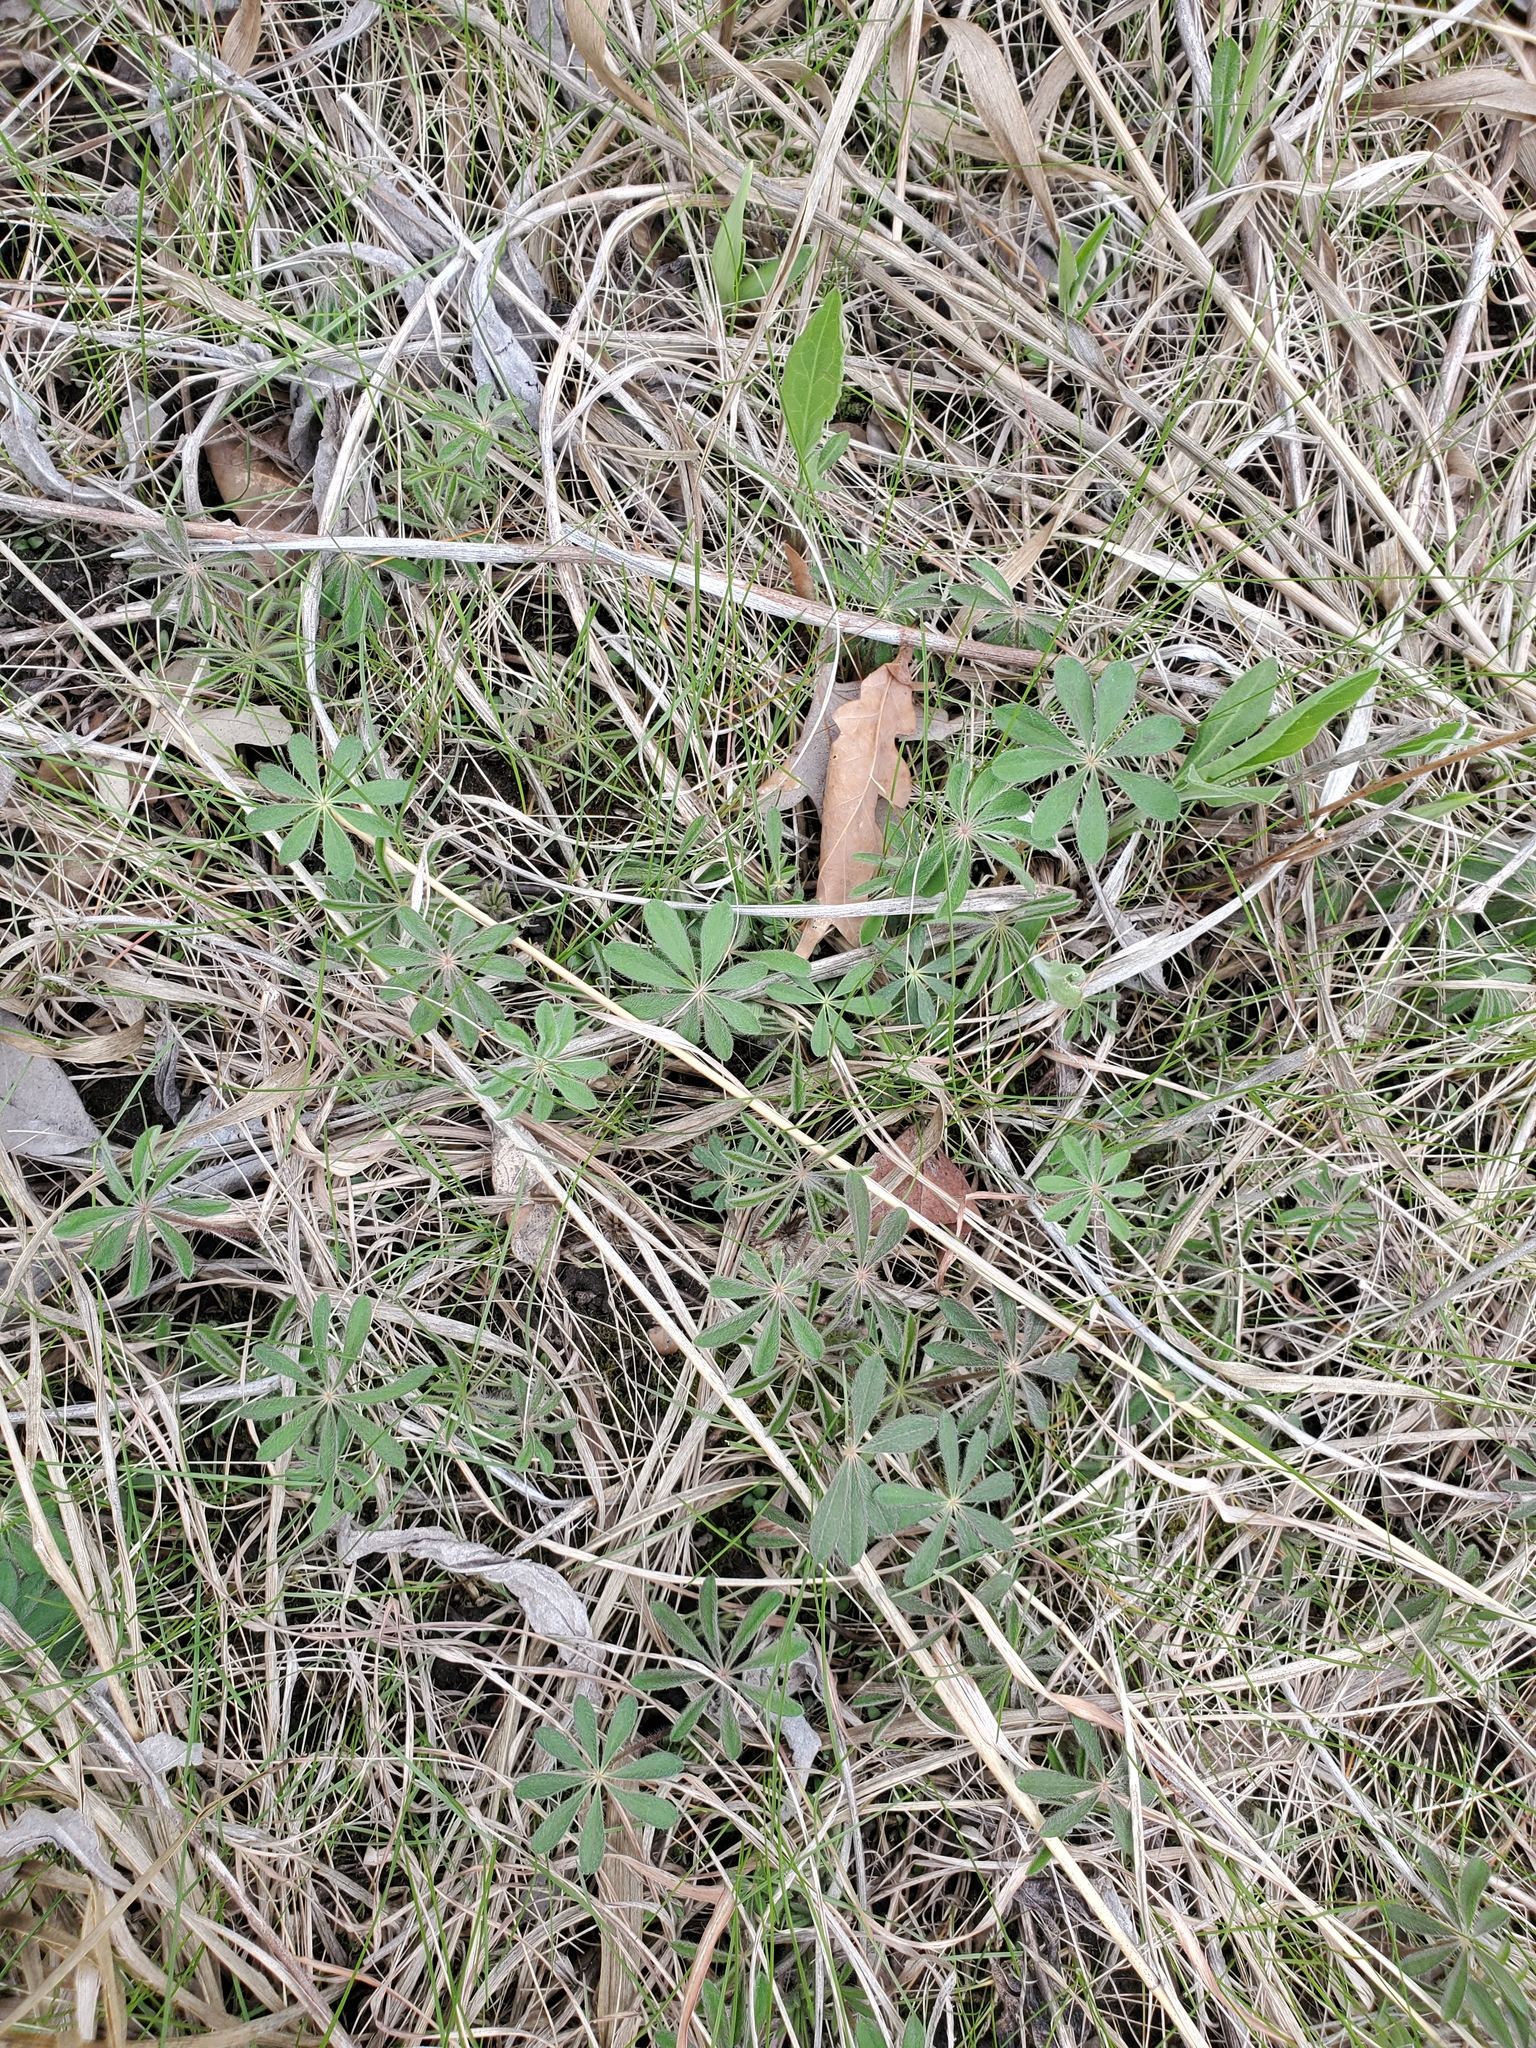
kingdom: Plantae
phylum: Tracheophyta
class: Magnoliopsida
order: Fabales
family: Fabaceae
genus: Lupinus
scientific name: Lupinus perennis
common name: Sundial lupine
